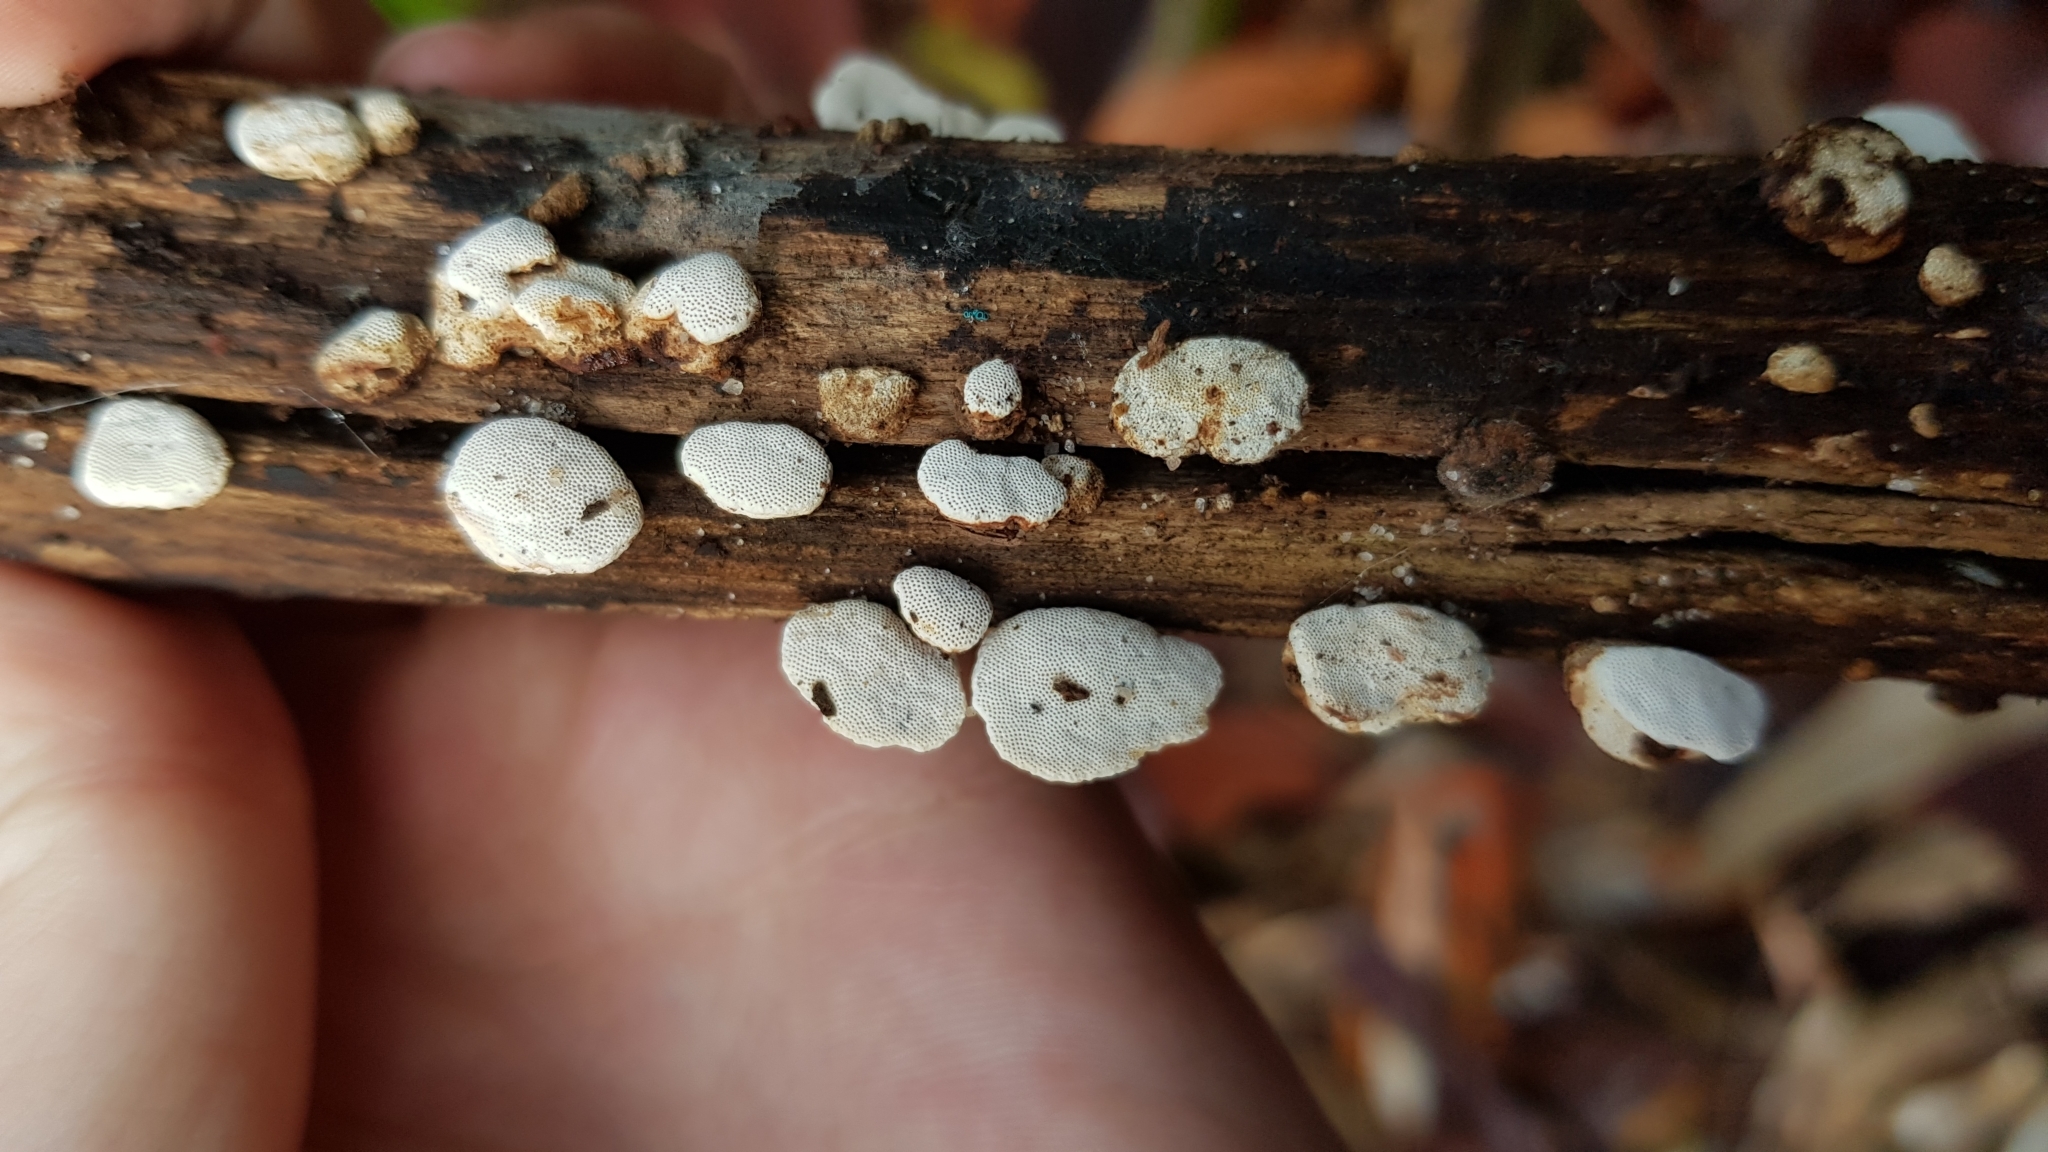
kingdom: Fungi
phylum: Basidiomycota
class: Agaricomycetes
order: Polyporales
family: Polyporaceae
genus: Truncospora
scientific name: Truncospora ochroleuca
